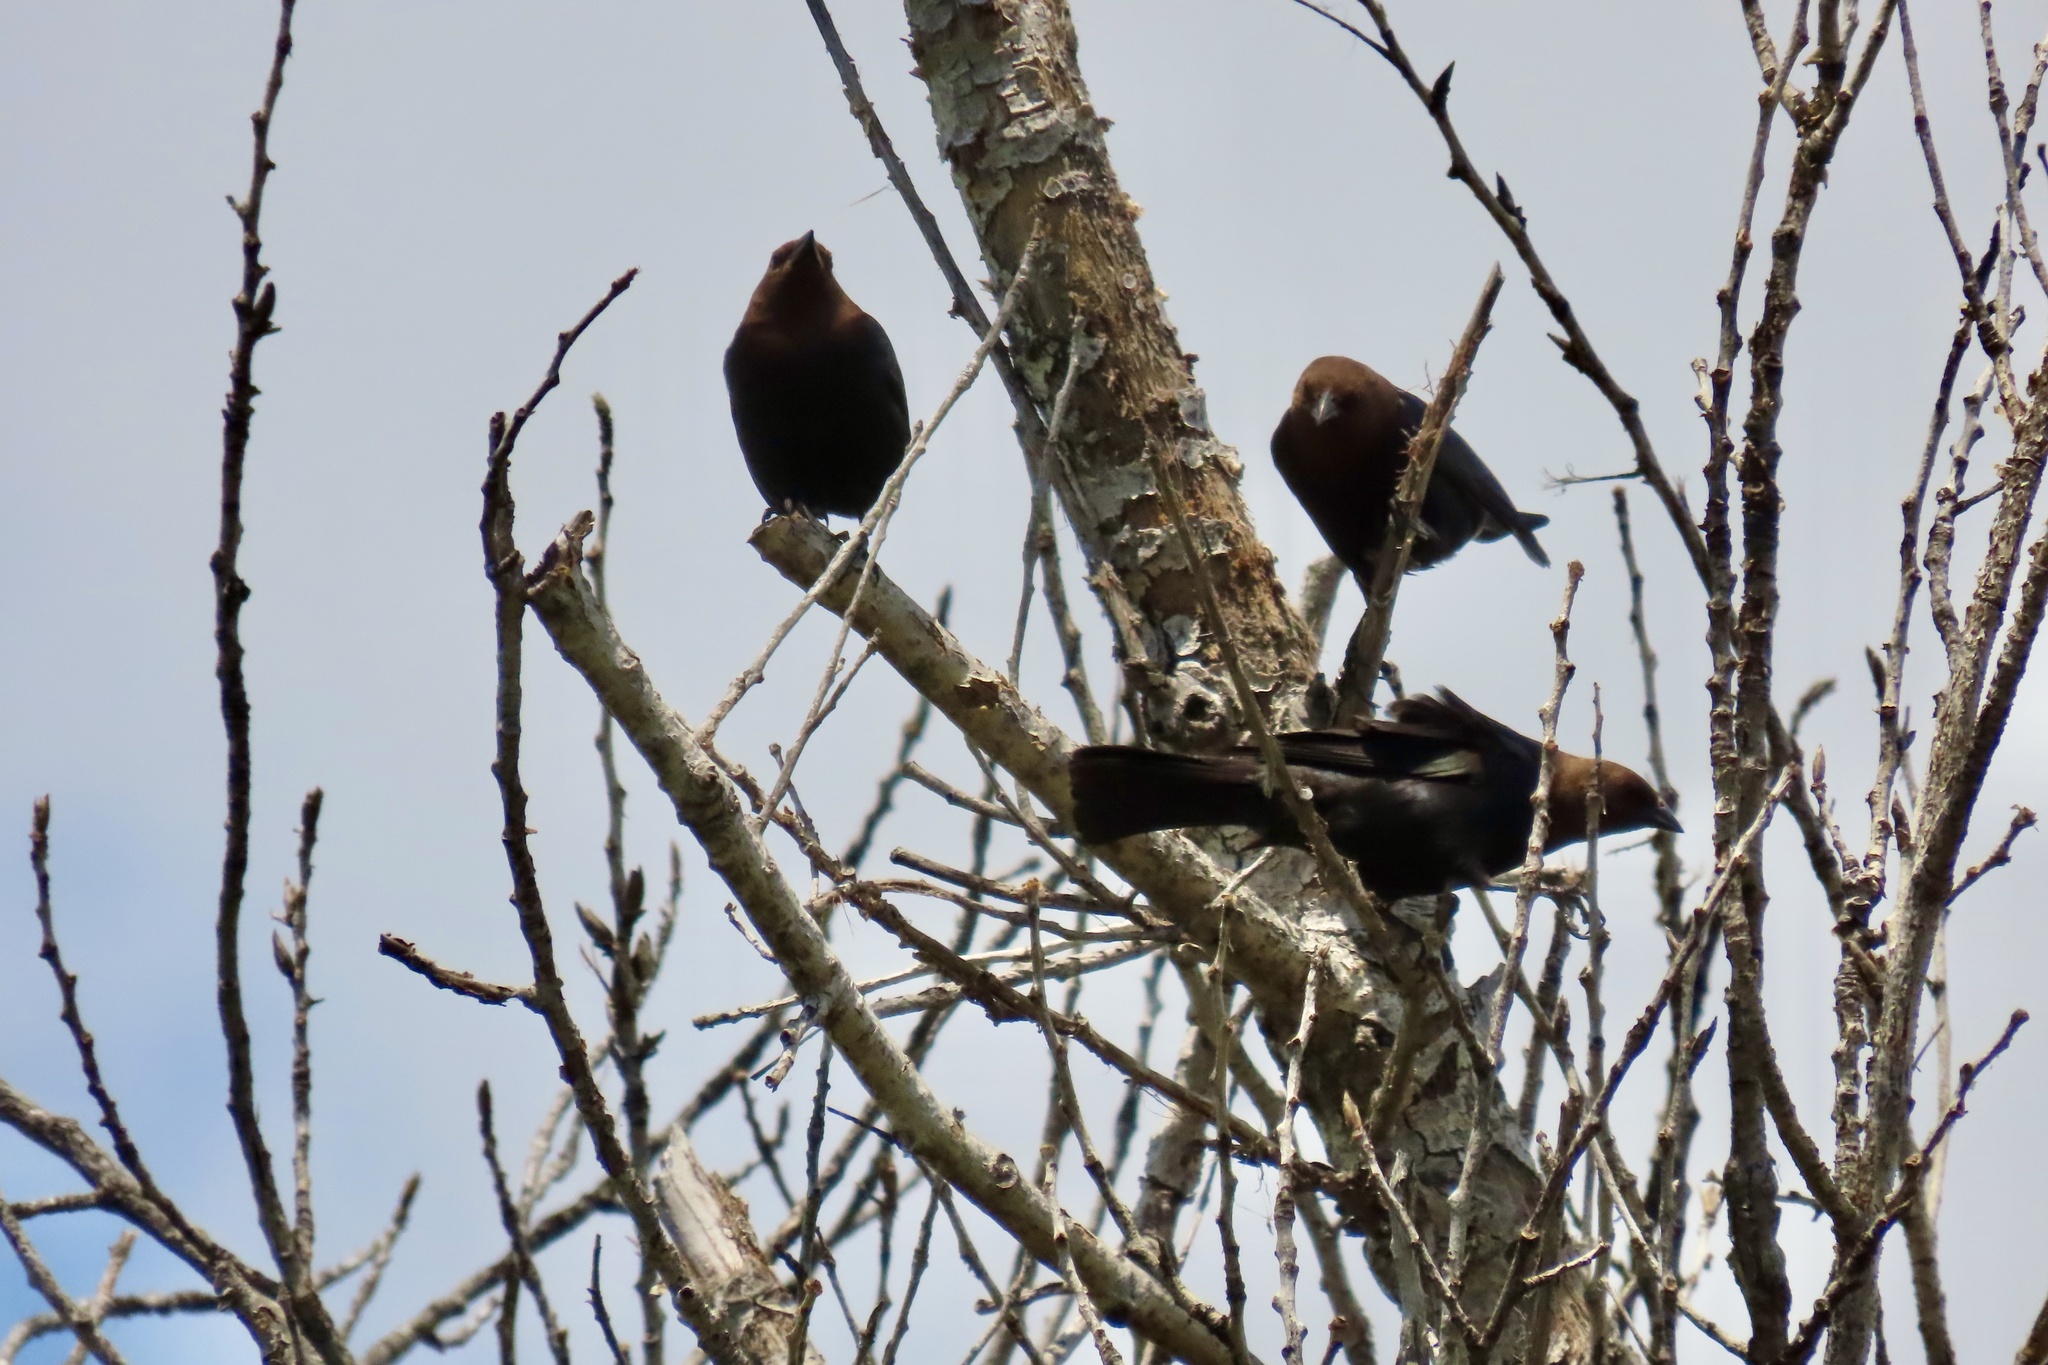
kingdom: Animalia
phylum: Chordata
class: Aves
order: Passeriformes
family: Icteridae
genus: Molothrus
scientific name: Molothrus ater
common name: Brown-headed cowbird
